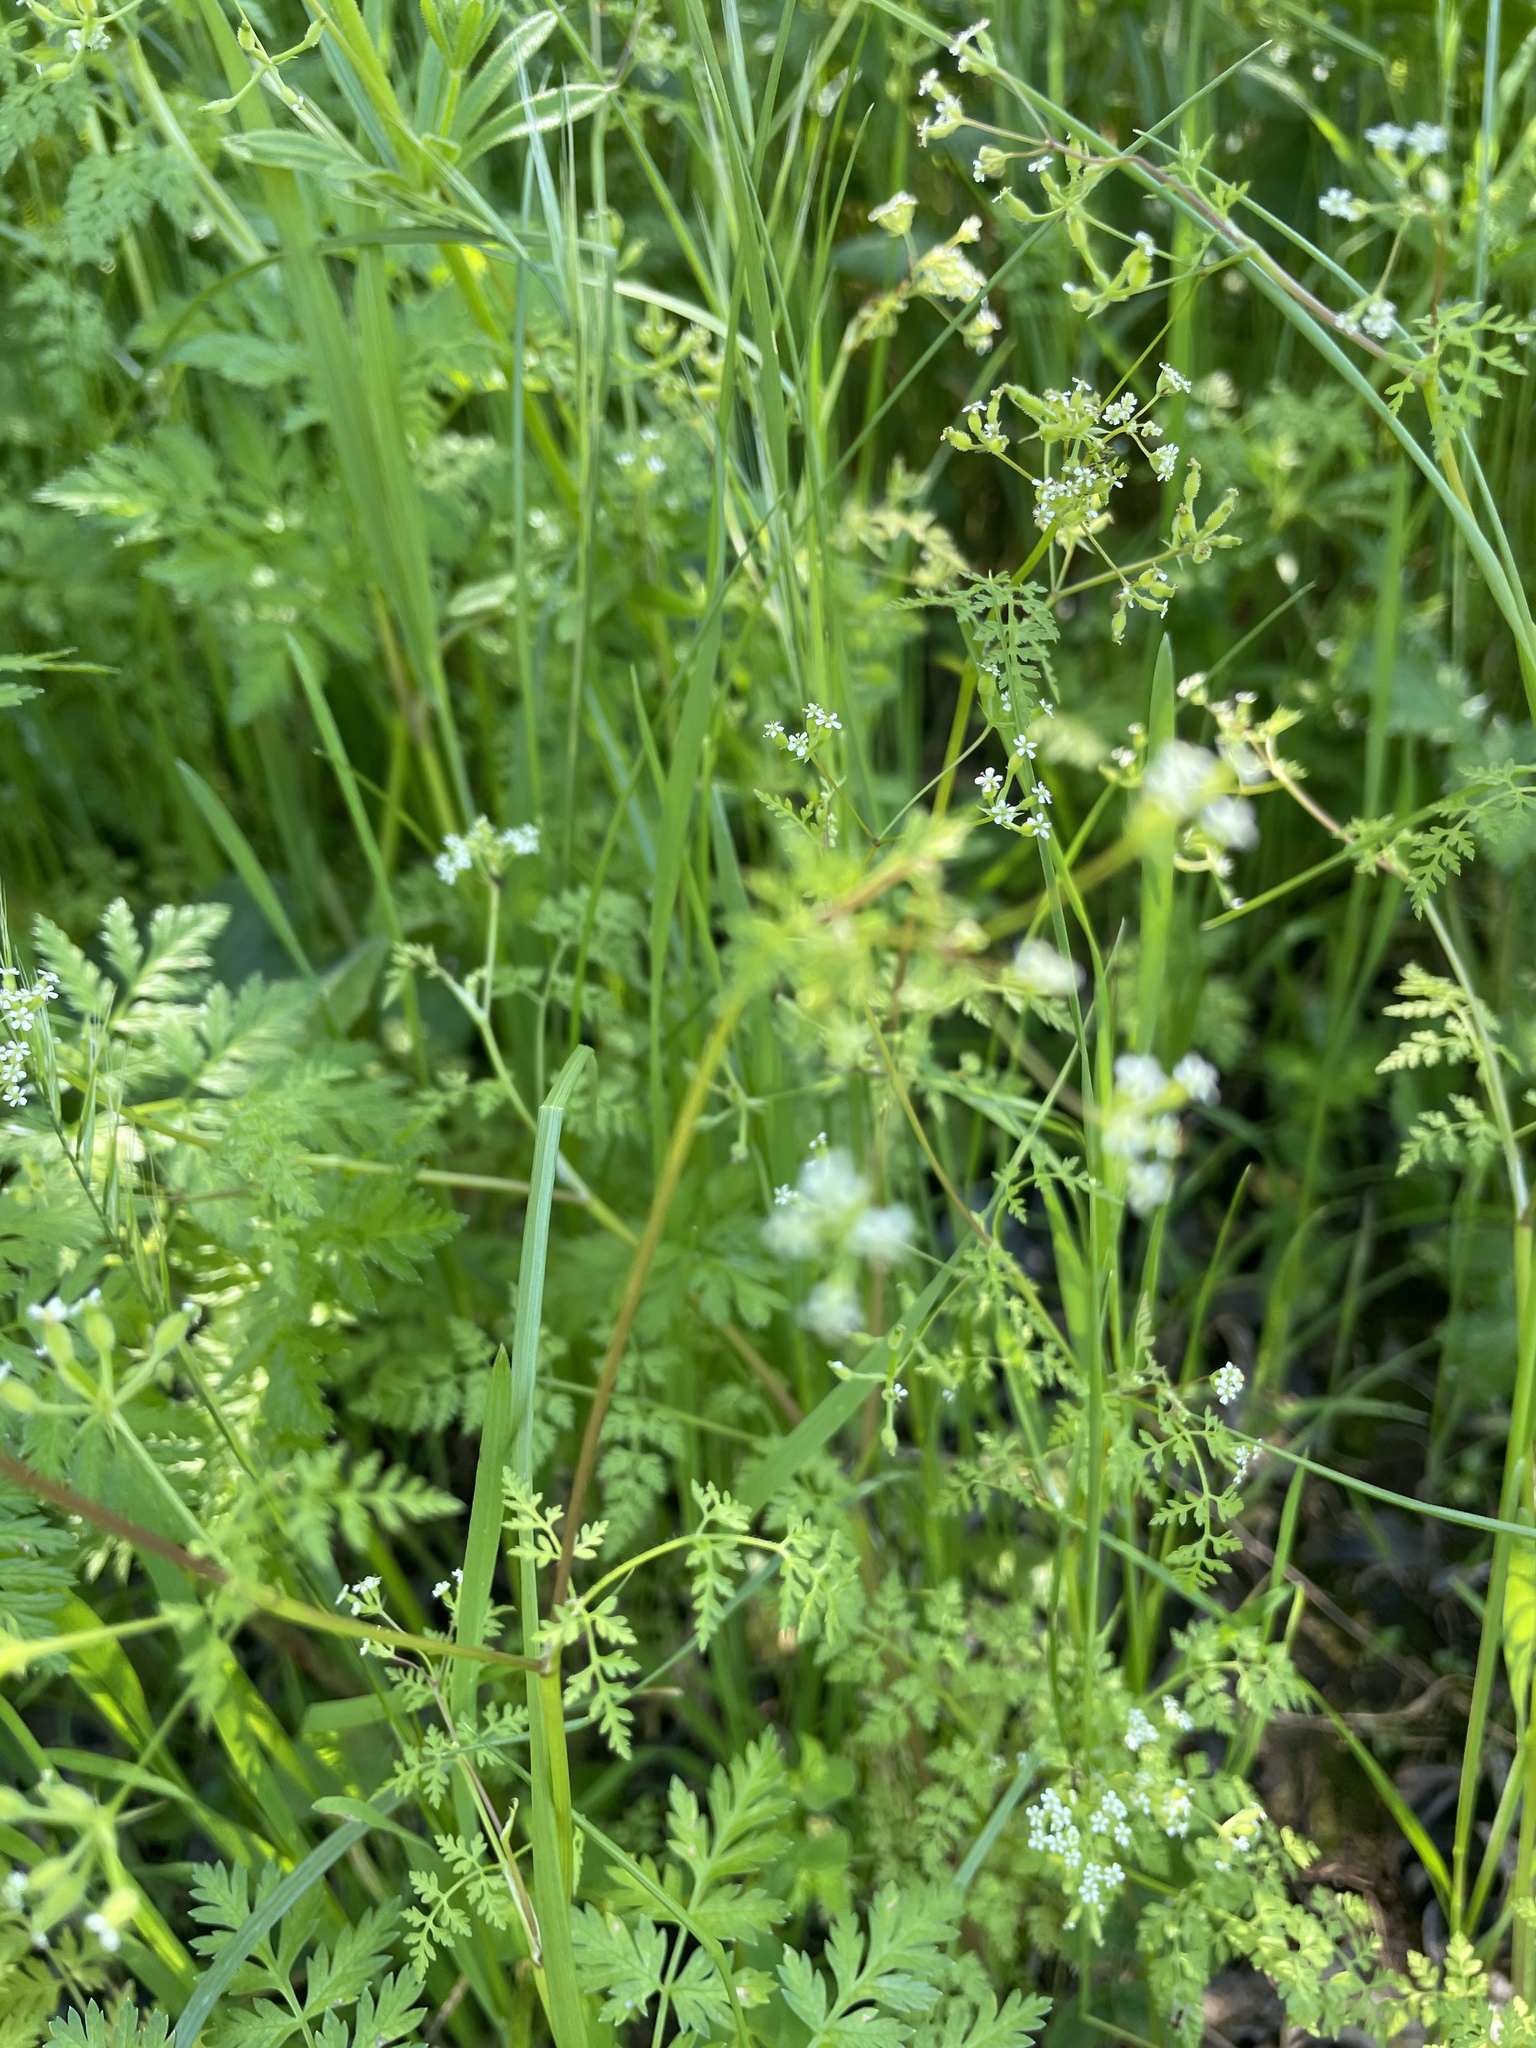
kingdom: Plantae
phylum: Tracheophyta
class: Magnoliopsida
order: Apiales
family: Apiaceae
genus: Anthriscus
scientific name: Anthriscus caucalis
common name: Bur chervil
